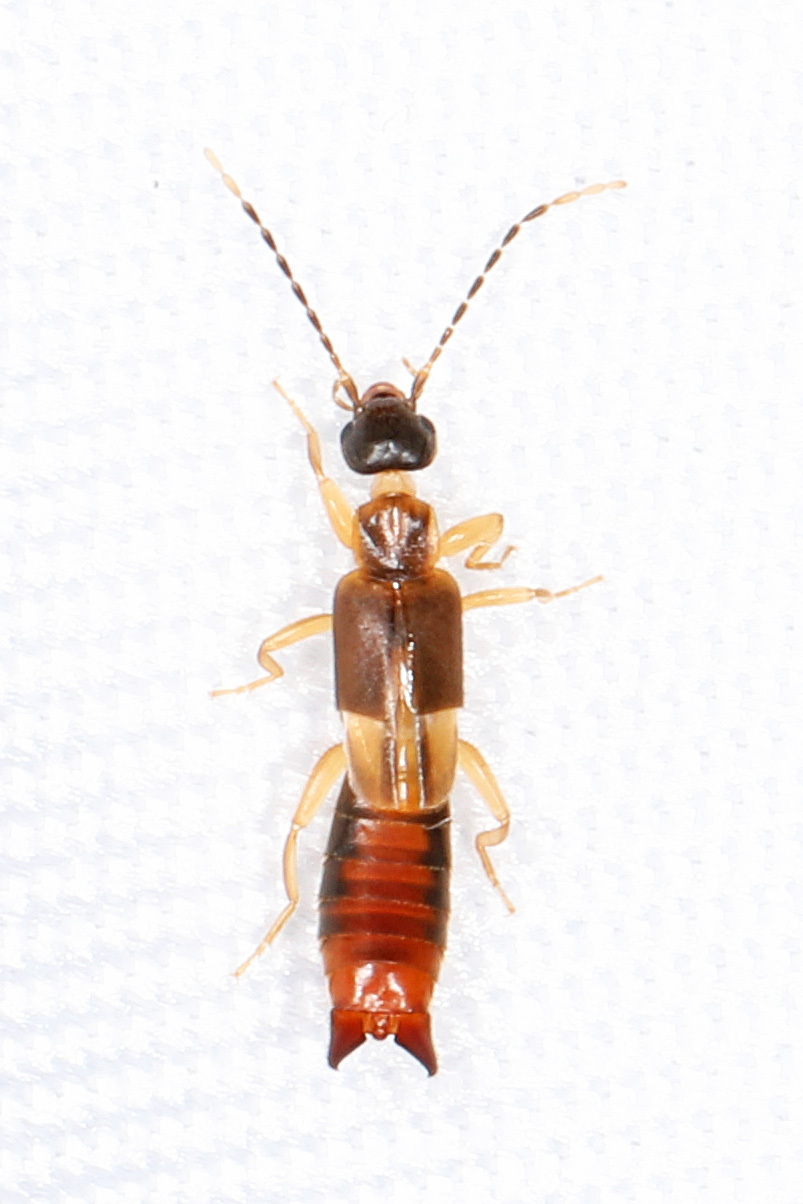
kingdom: Animalia
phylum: Arthropoda
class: Insecta
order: Dermaptera
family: Spongiphoridae
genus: Labia
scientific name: Labia minor
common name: Lesser earwig
